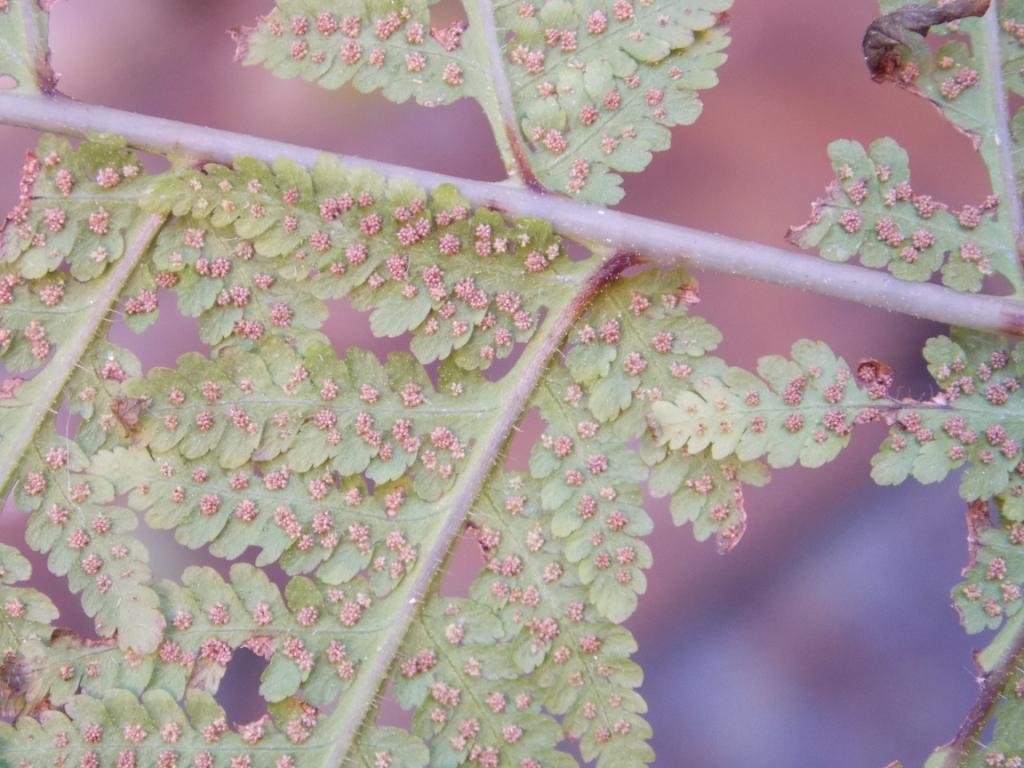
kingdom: Plantae
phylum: Tracheophyta
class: Polypodiopsida
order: Polypodiales
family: Thelypteridaceae
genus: Macrothelypteris
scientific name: Macrothelypteris torresiana
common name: Swordfern
